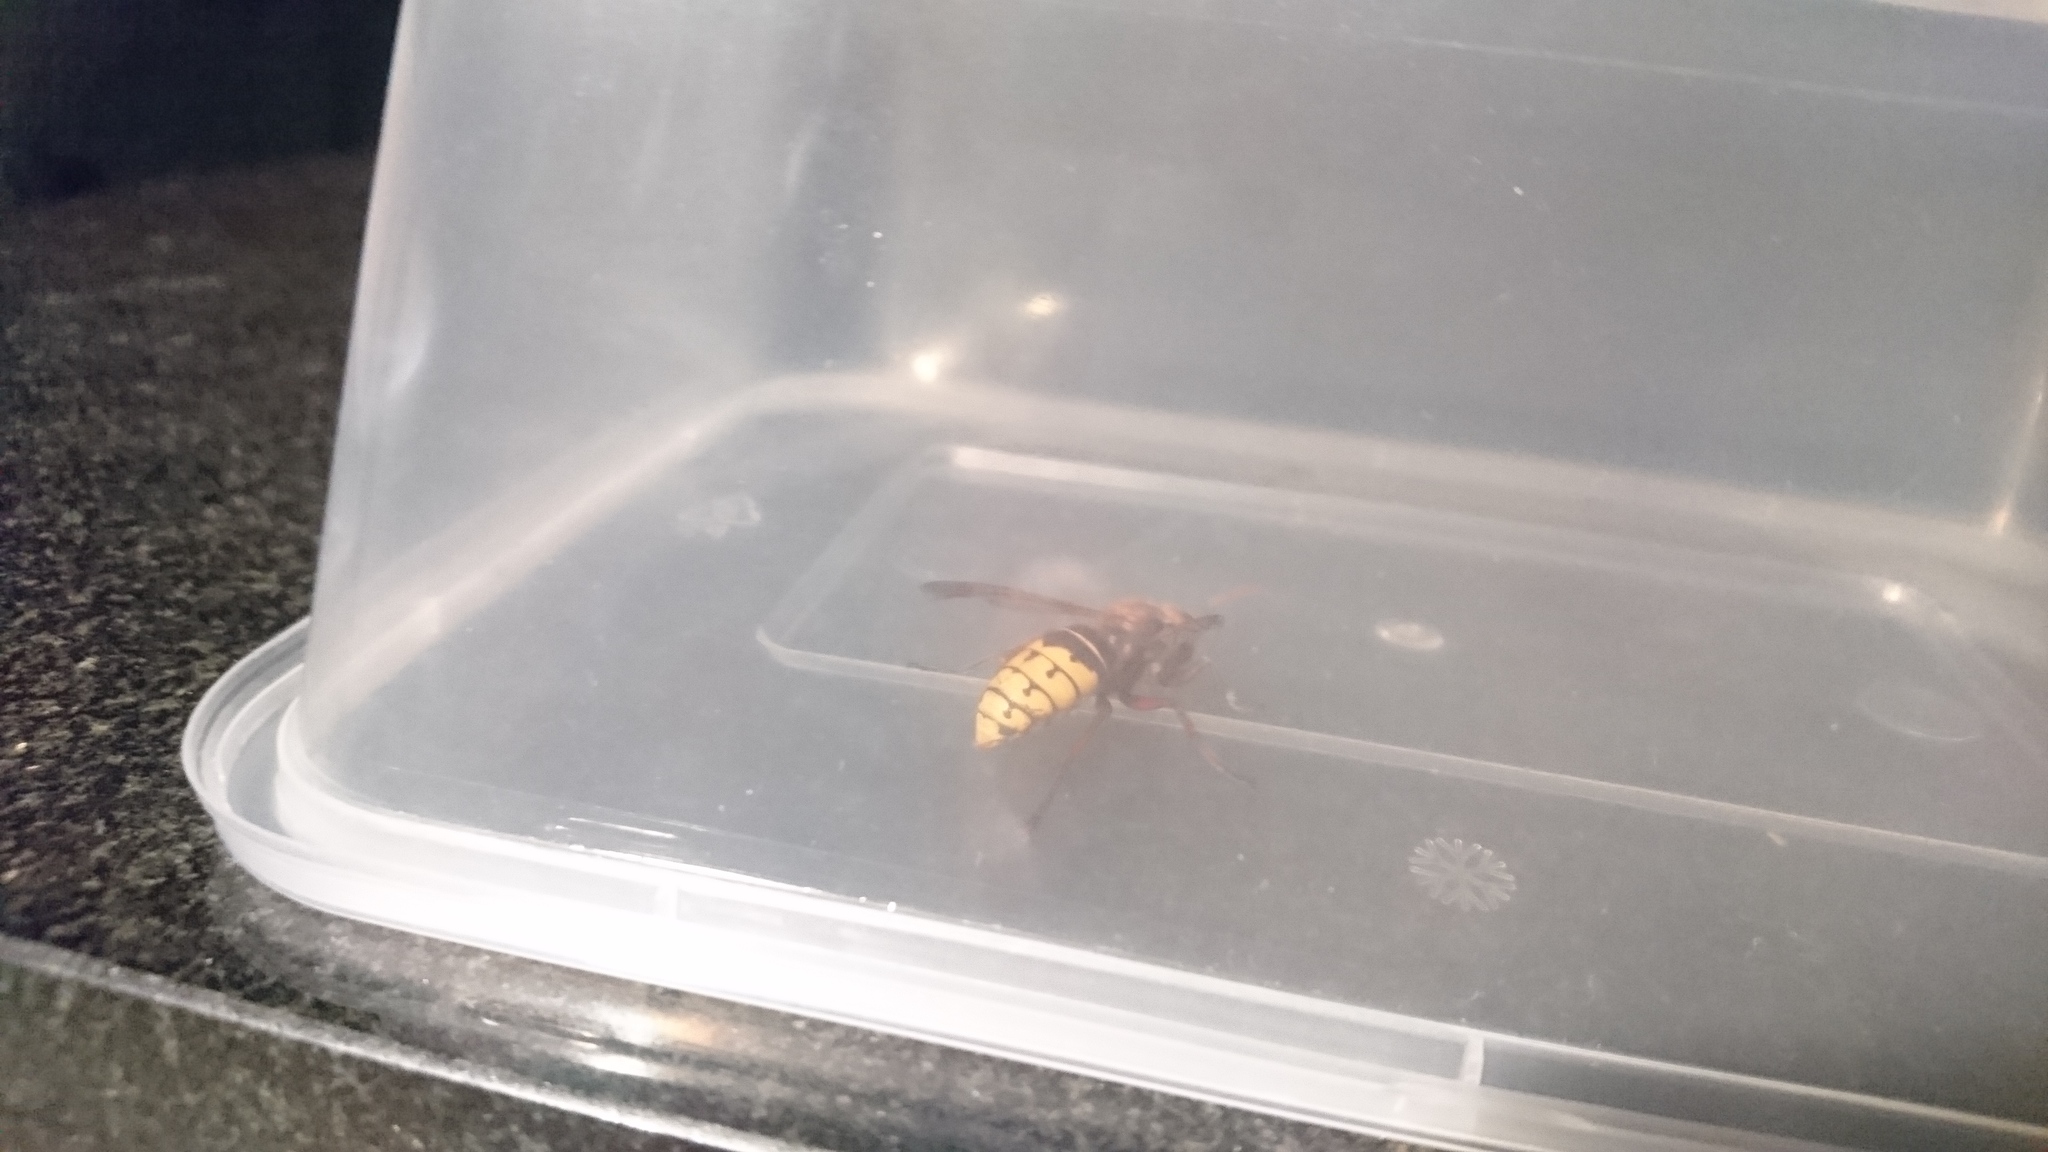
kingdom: Animalia
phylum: Arthropoda
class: Insecta
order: Hymenoptera
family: Vespidae
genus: Vespa
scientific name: Vespa crabro
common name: Hornet
